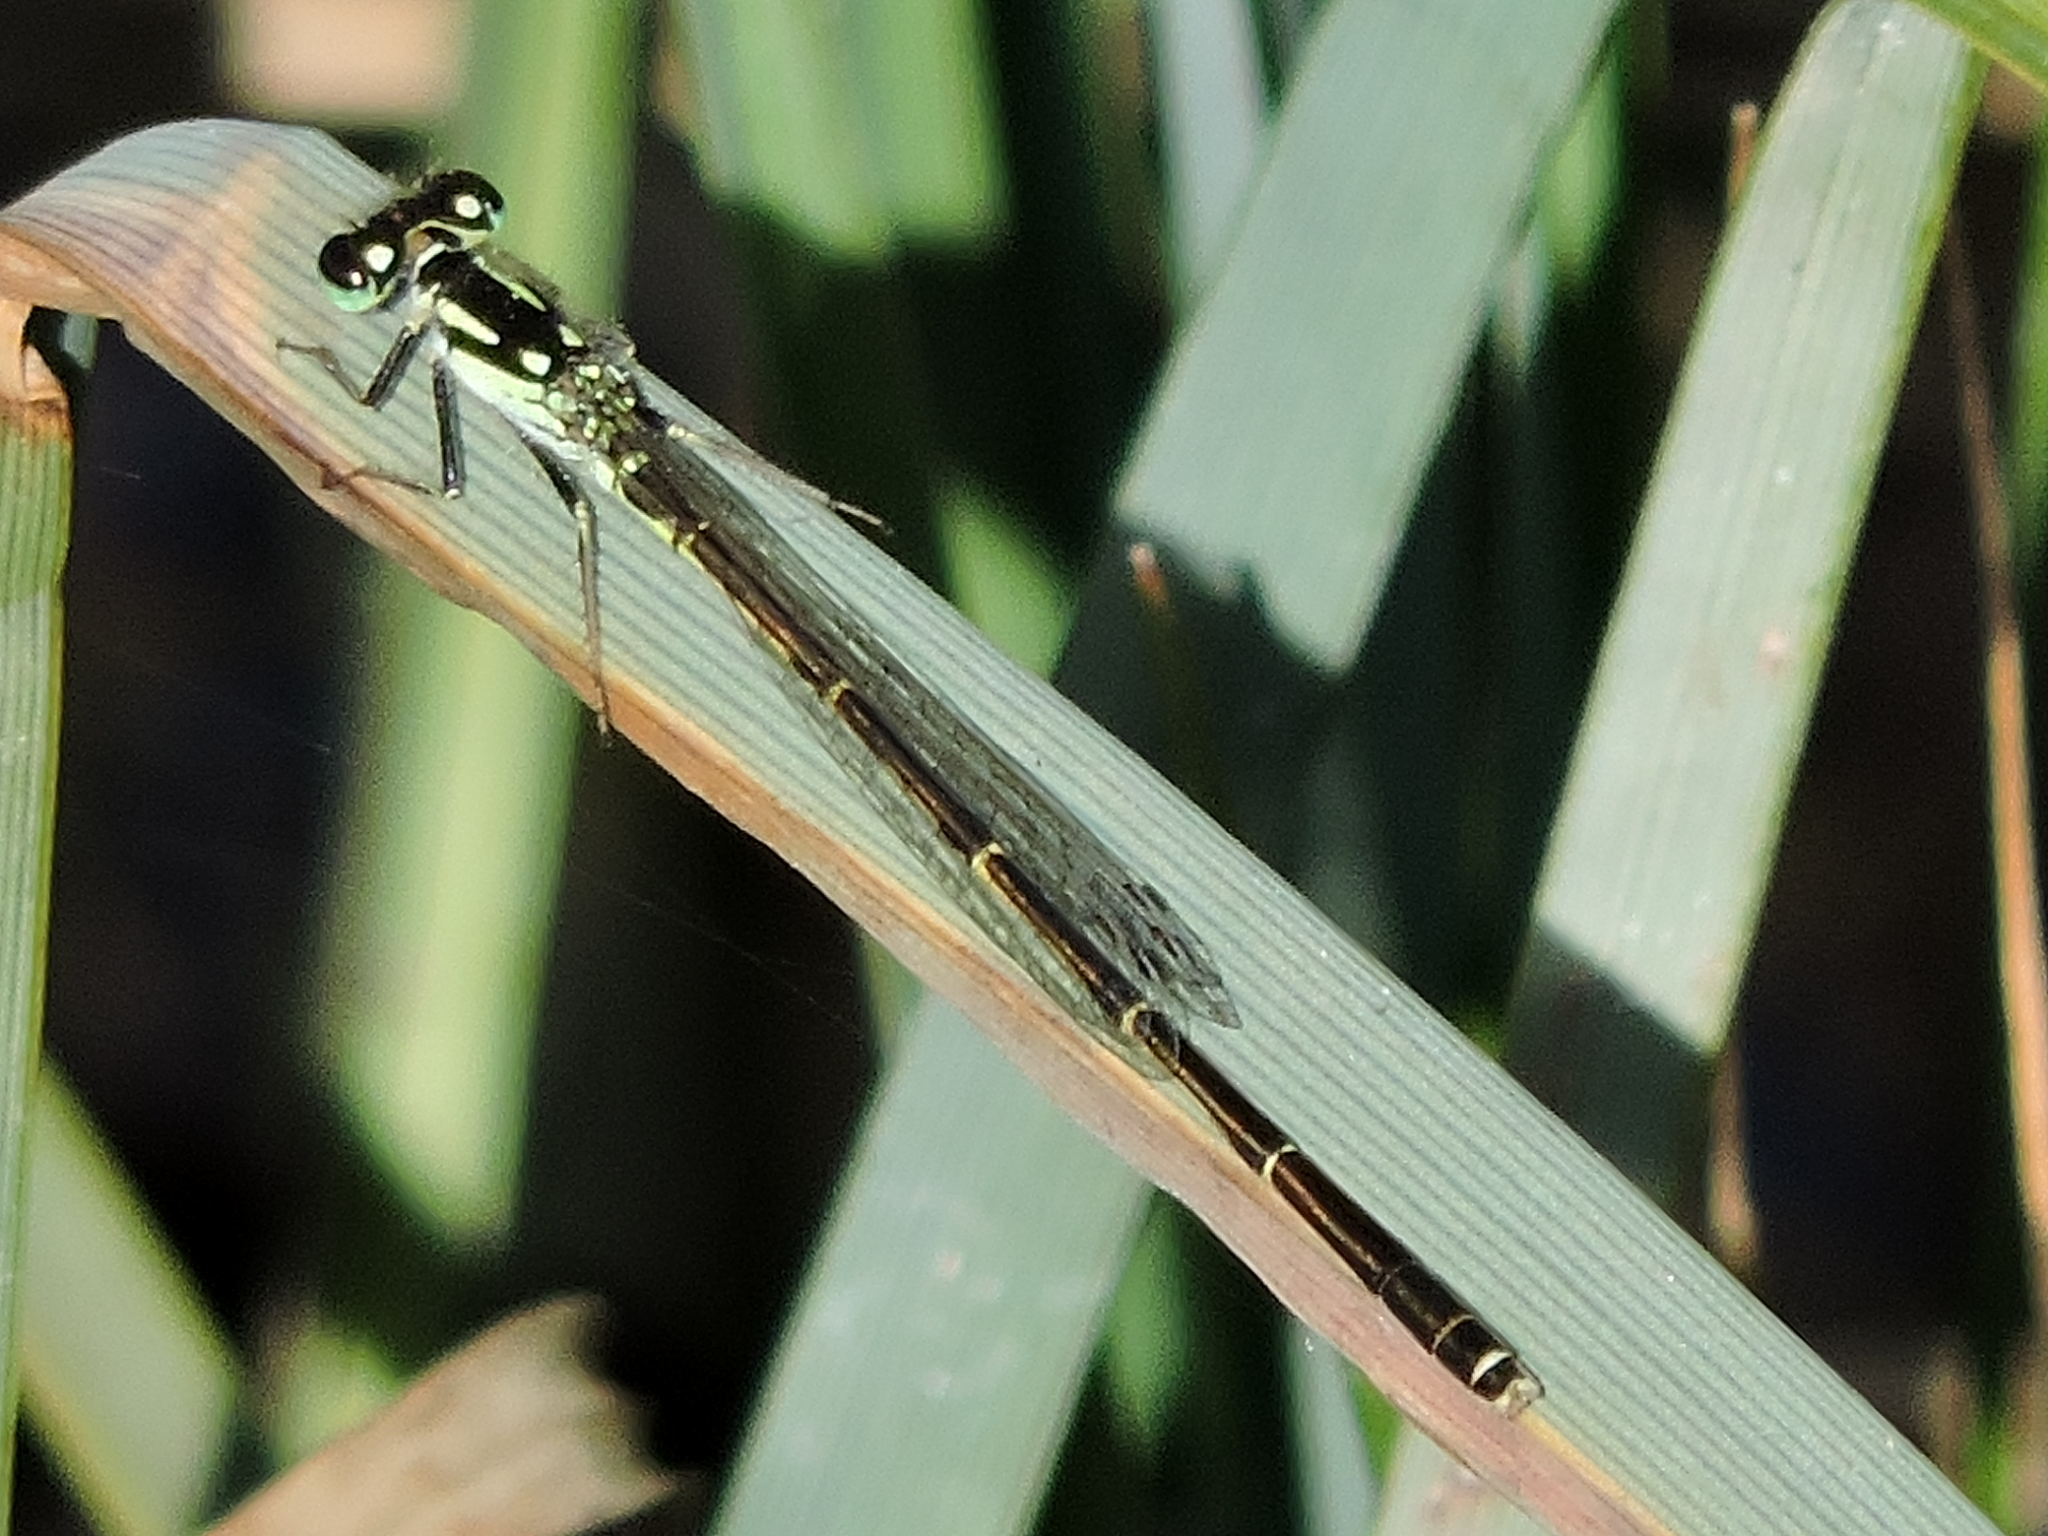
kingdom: Animalia
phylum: Arthropoda
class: Insecta
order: Odonata
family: Coenagrionidae
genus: Ischnura
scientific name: Ischnura posita
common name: Fragile forktail
